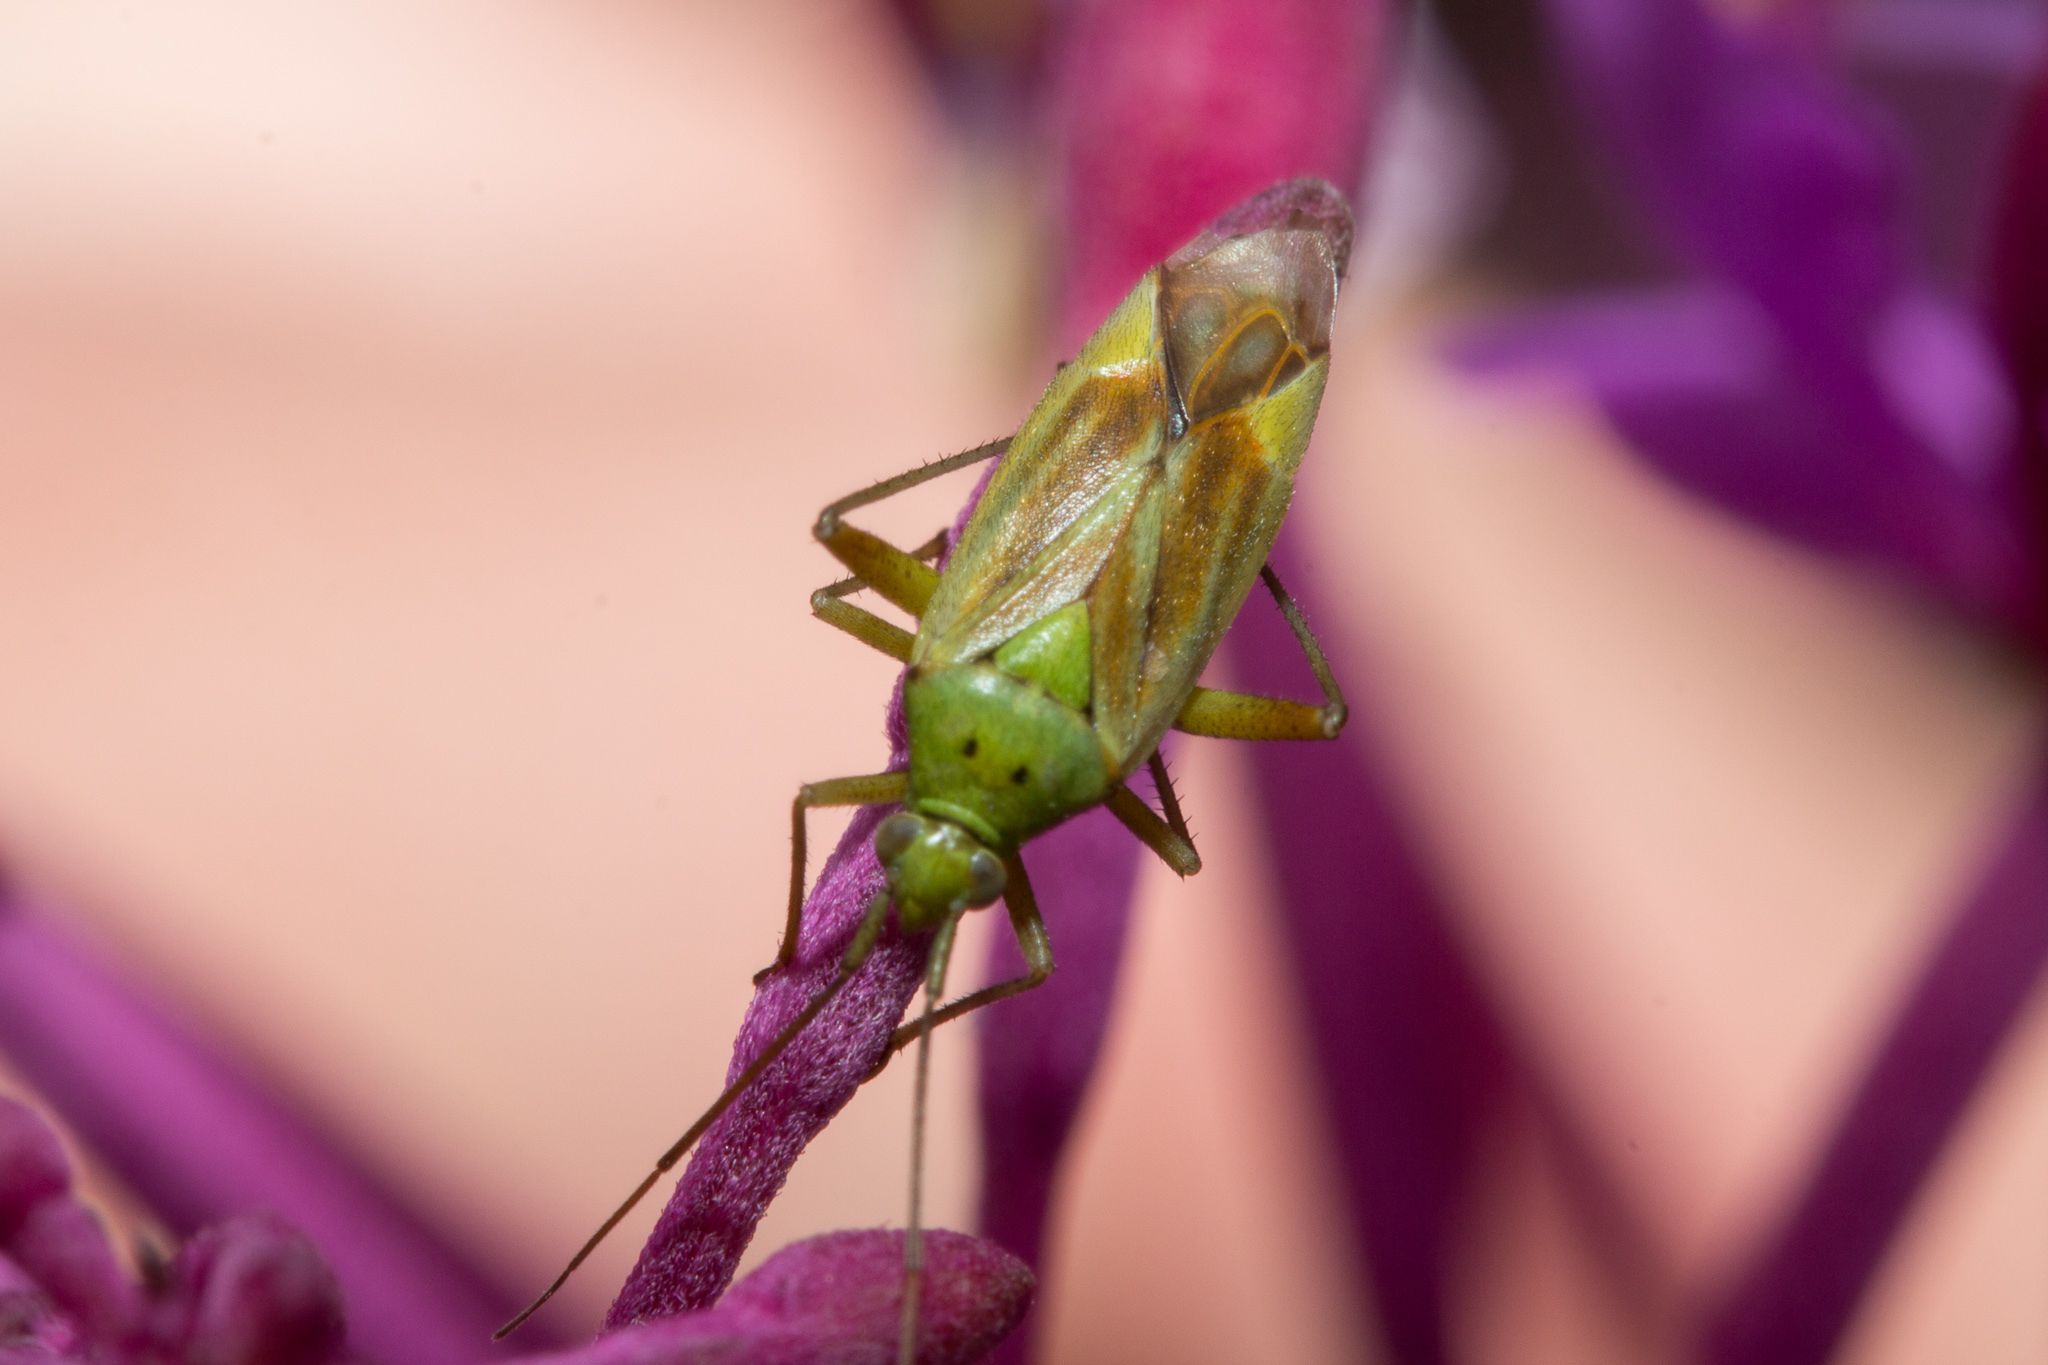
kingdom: Animalia
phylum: Arthropoda
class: Insecta
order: Hemiptera
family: Miridae
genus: Closterotomus
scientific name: Closterotomus norvegicus
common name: Plant bug
